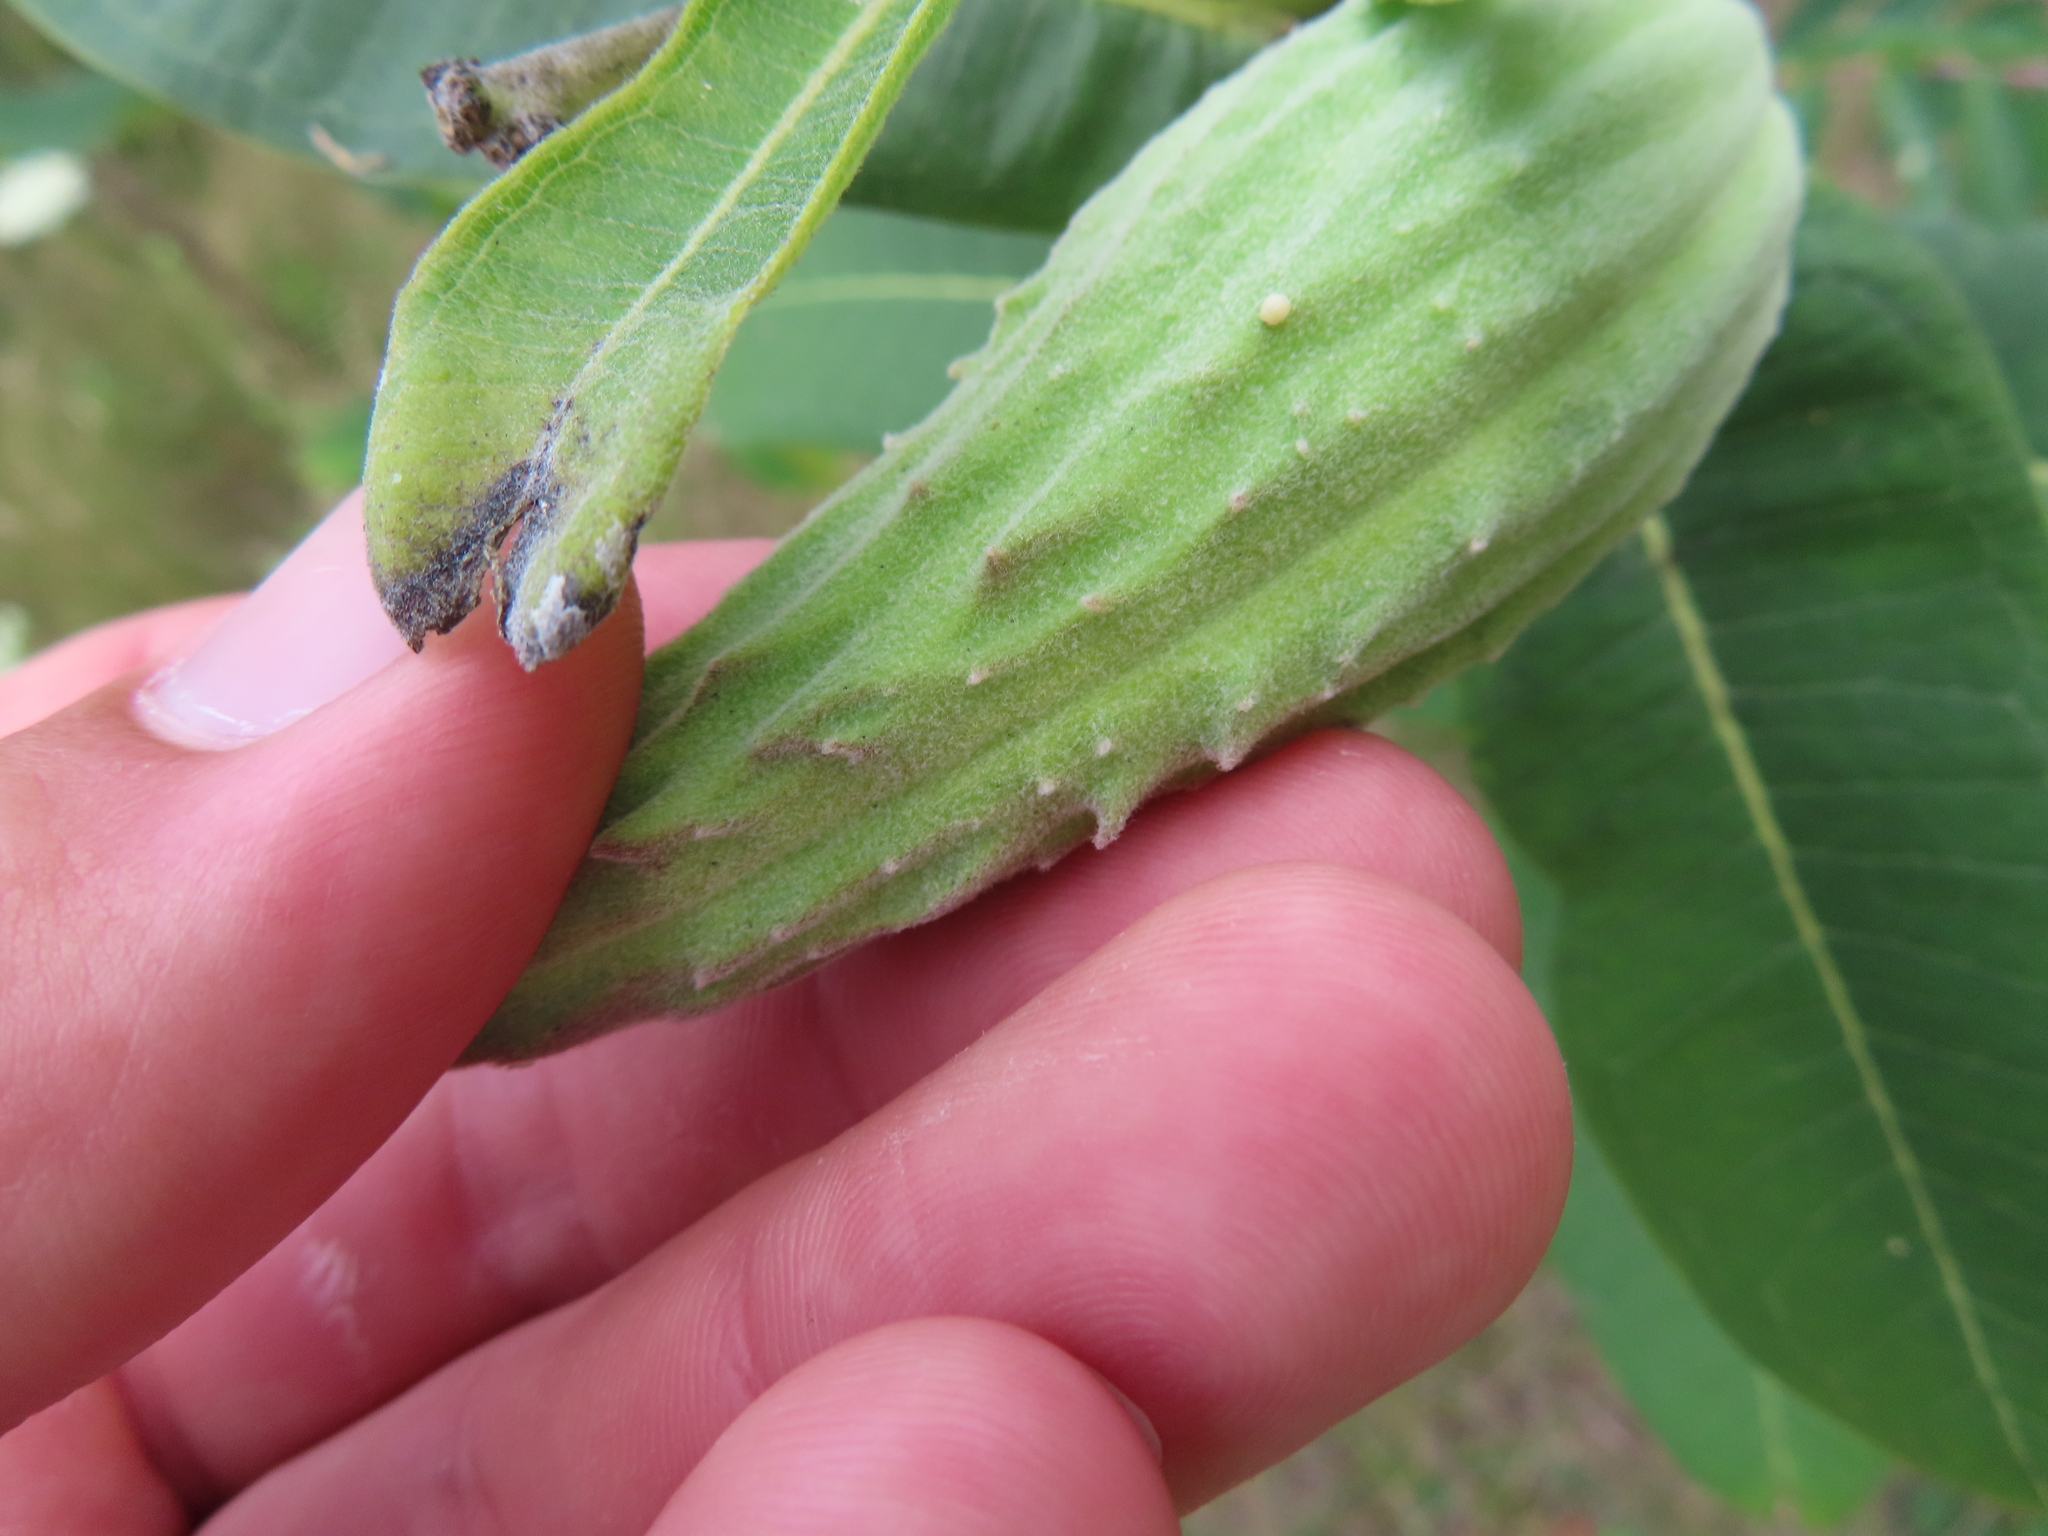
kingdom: Plantae
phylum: Tracheophyta
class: Magnoliopsida
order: Gentianales
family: Apocynaceae
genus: Asclepias
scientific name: Asclepias syriaca
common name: Common milkweed
